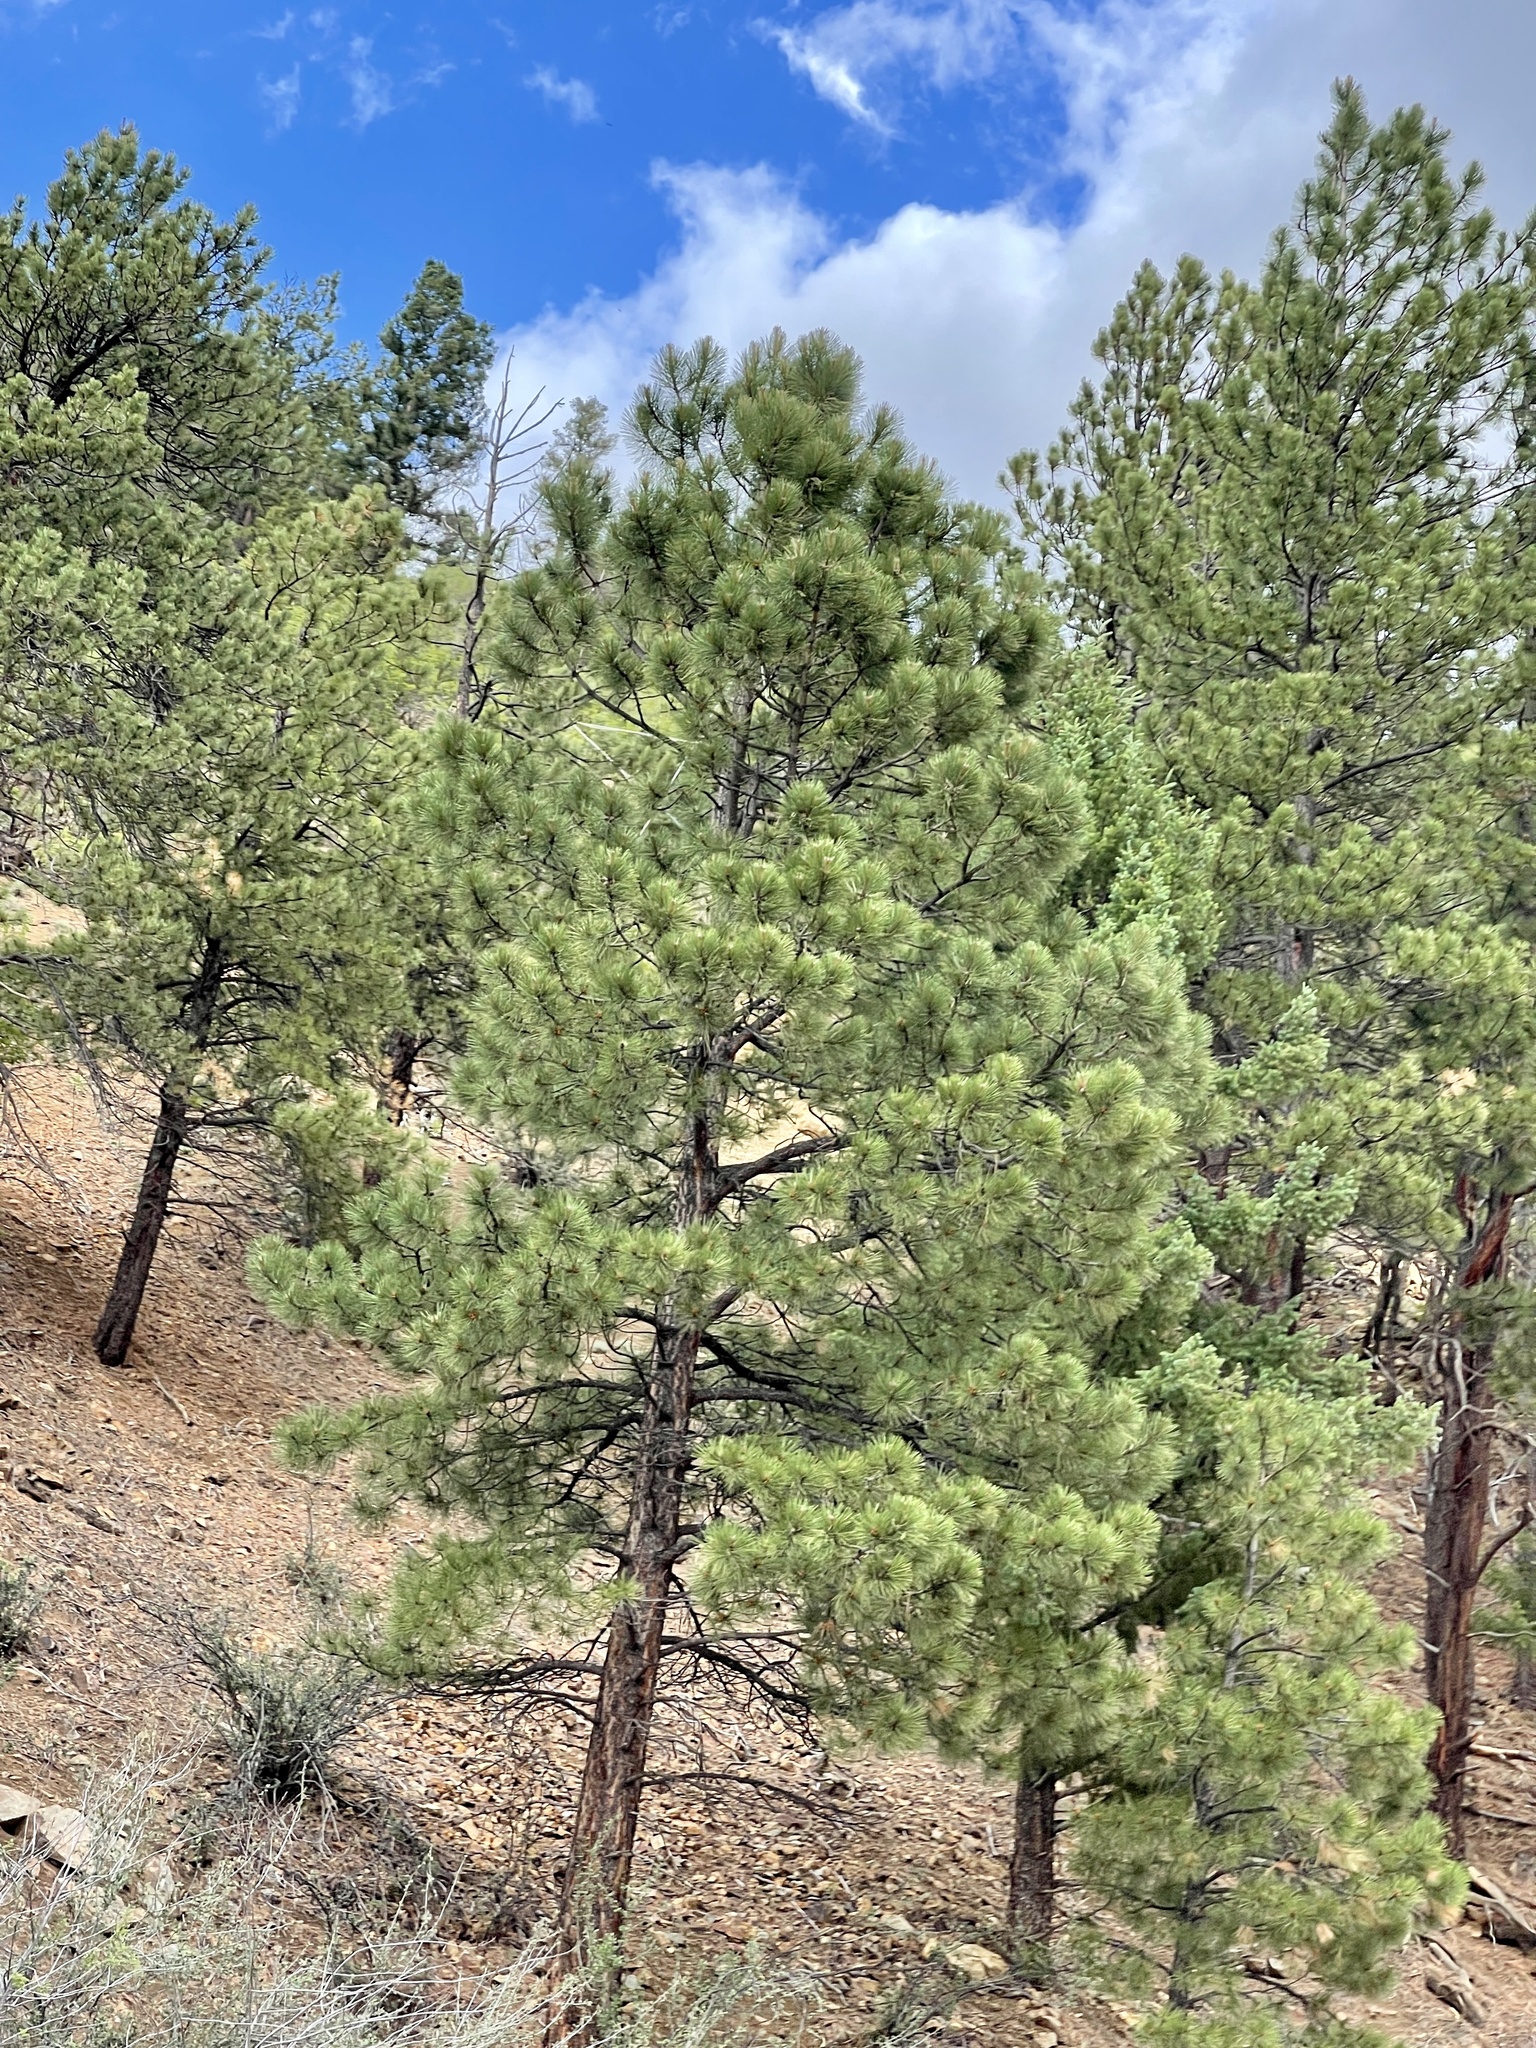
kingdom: Plantae
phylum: Tracheophyta
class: Pinopsida
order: Pinales
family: Pinaceae
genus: Pinus
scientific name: Pinus ponderosa
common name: Western yellow-pine
